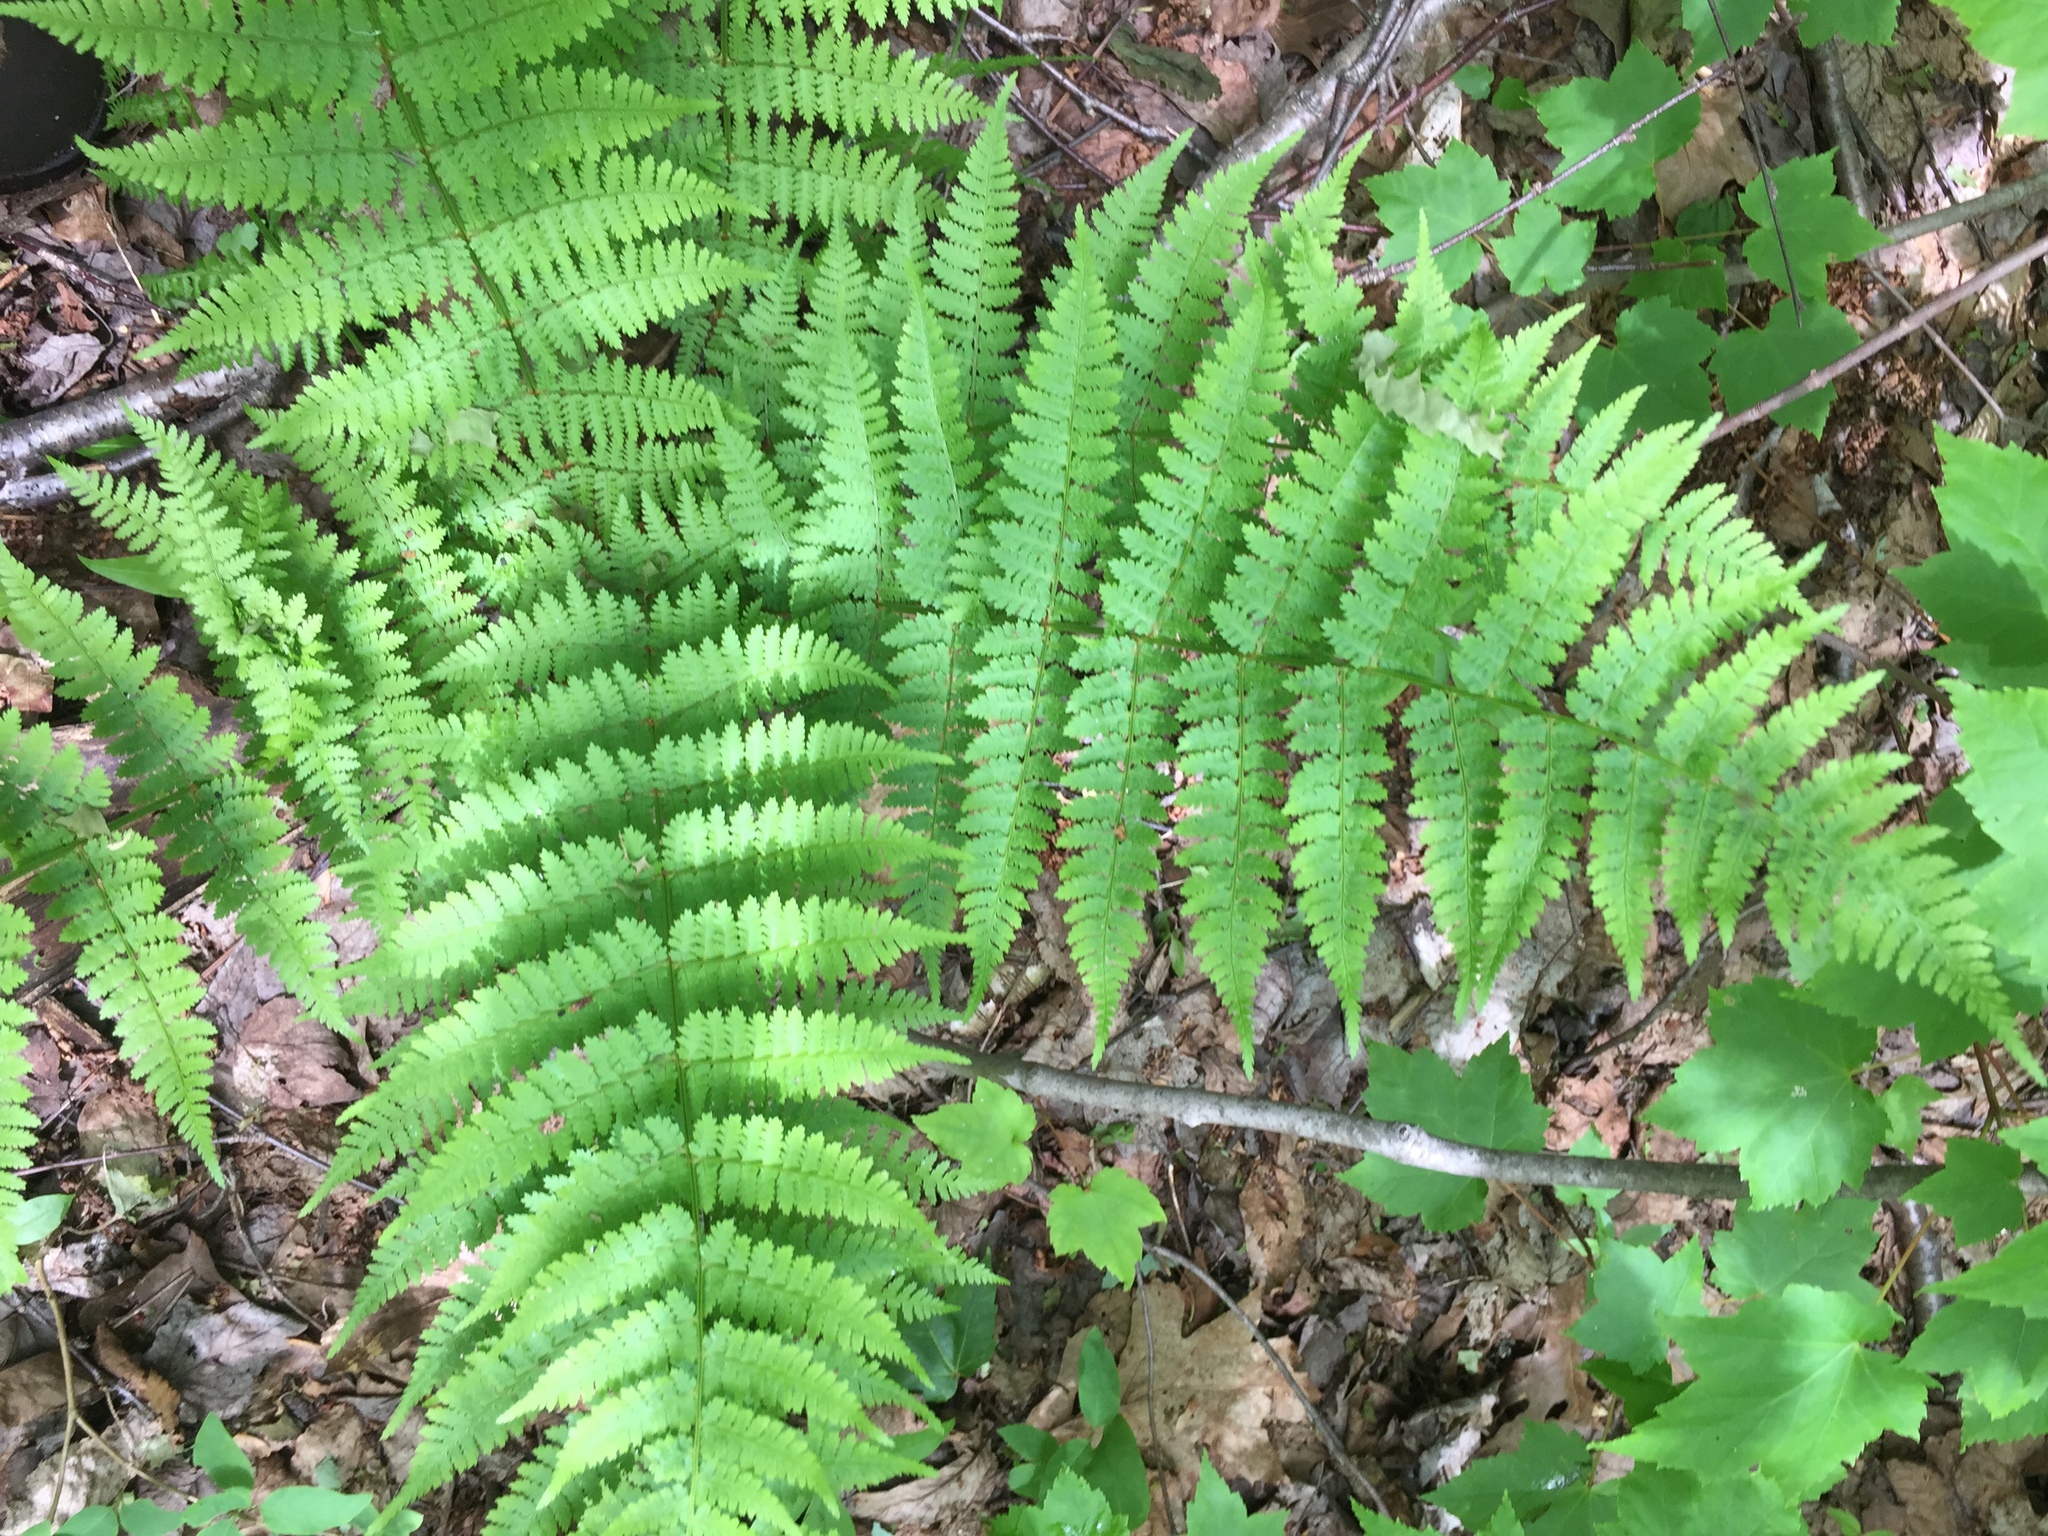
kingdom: Plantae
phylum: Tracheophyta
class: Polypodiopsida
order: Polypodiales
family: Athyriaceae
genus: Athyrium
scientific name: Athyrium angustum
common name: Northern lady fern
